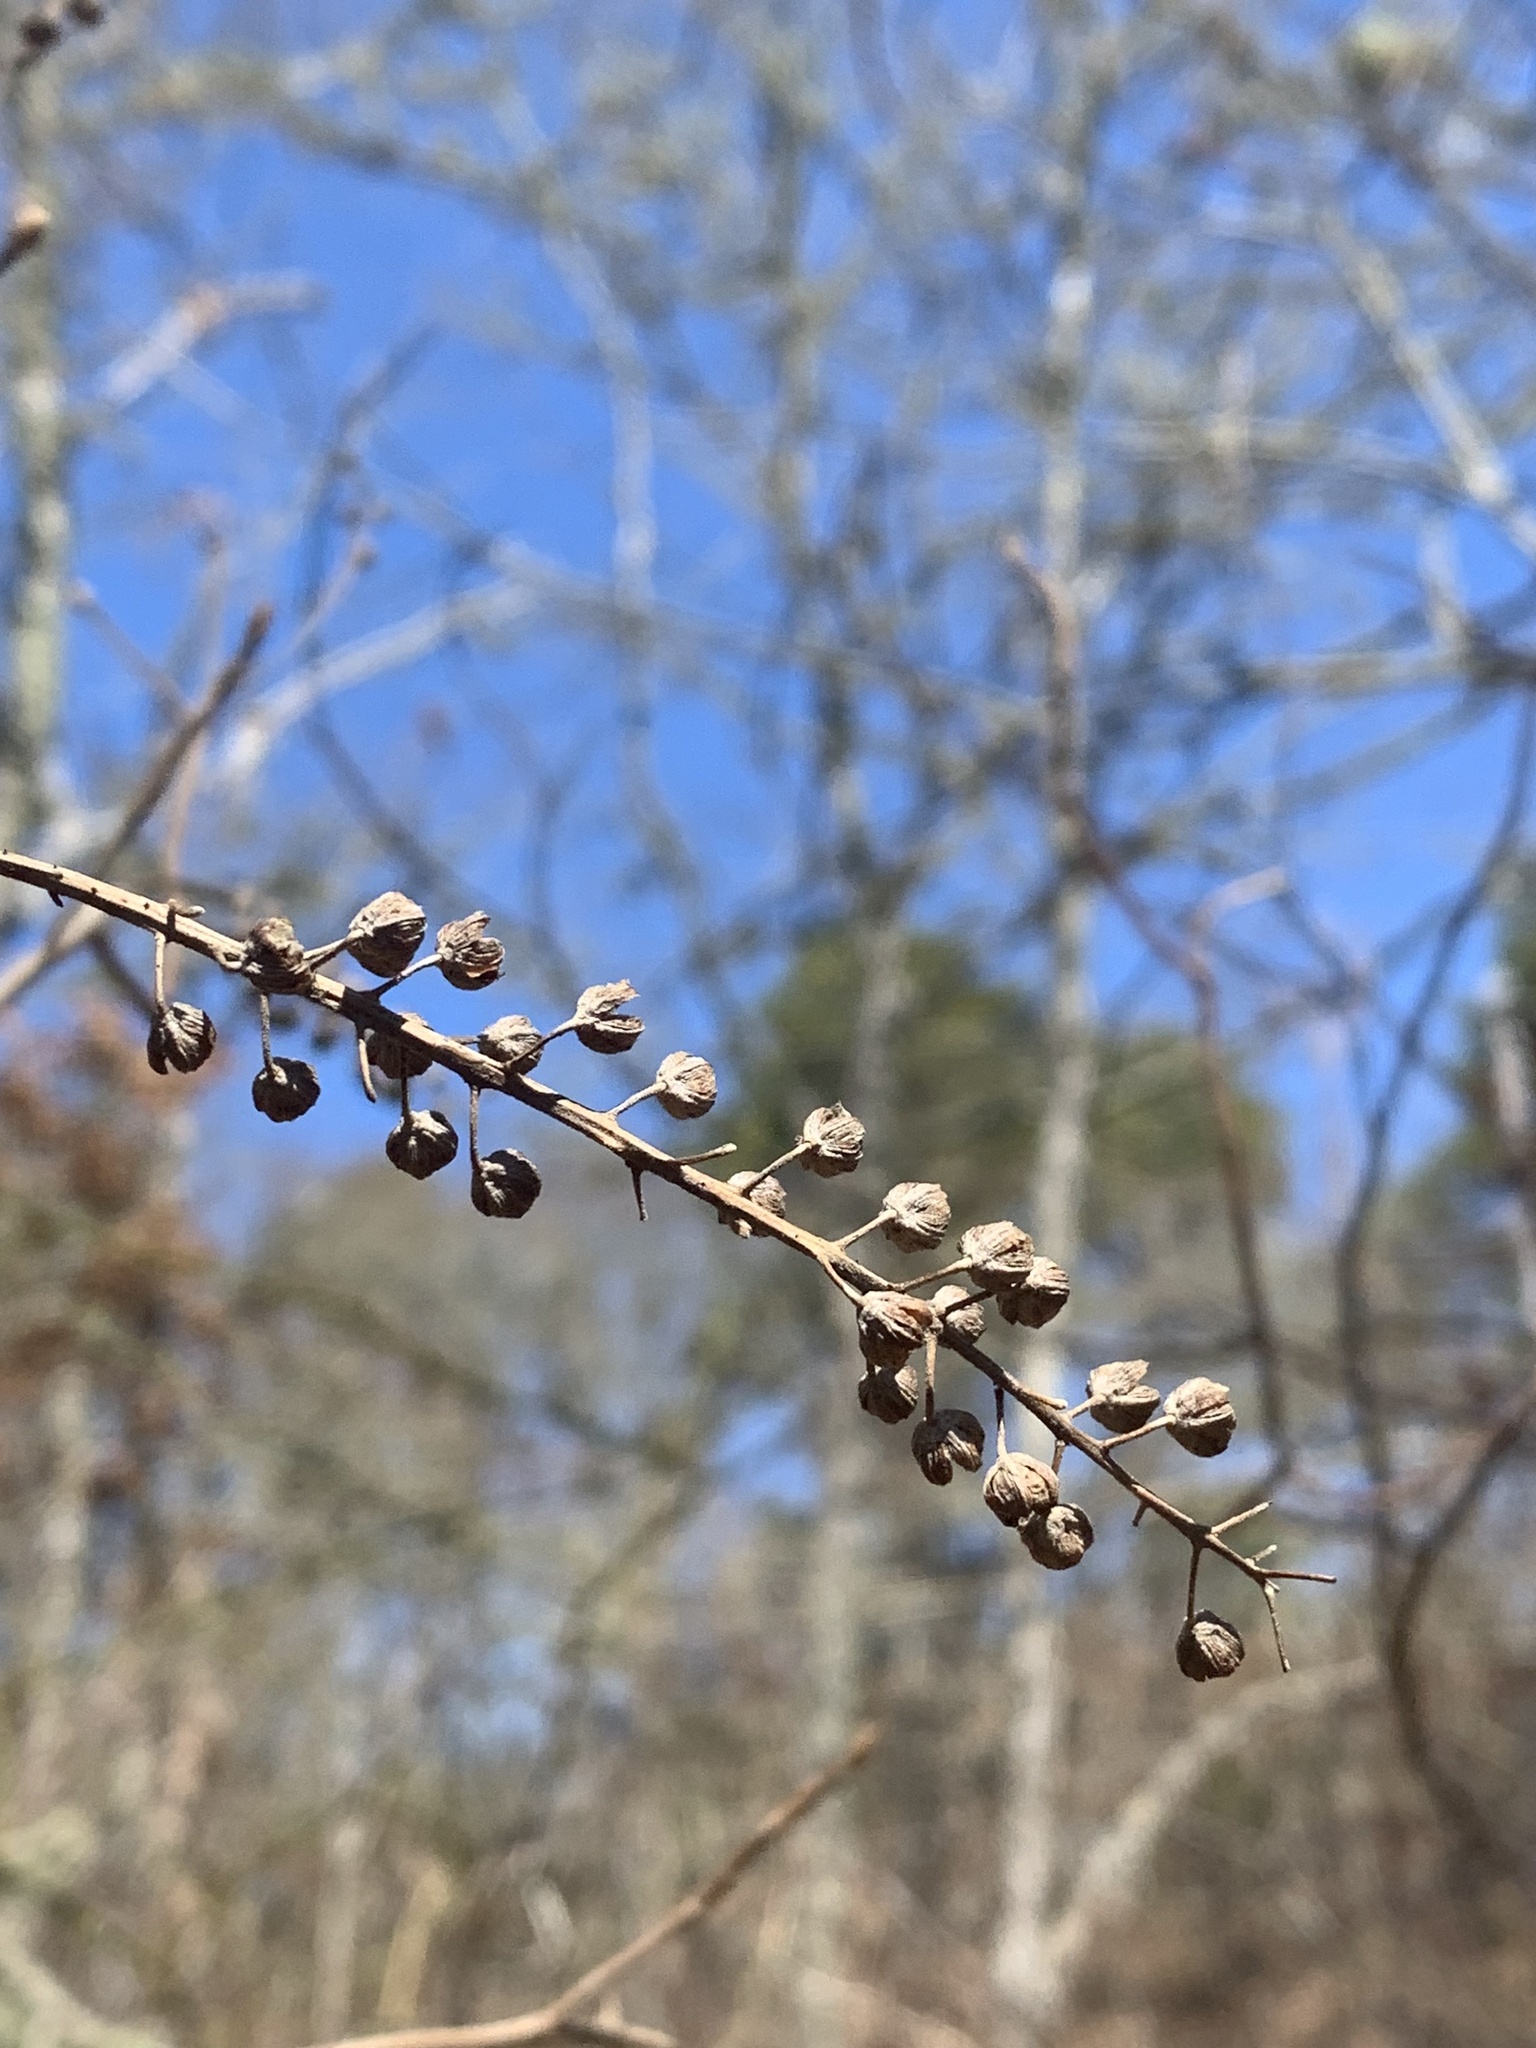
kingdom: Plantae
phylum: Tracheophyta
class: Magnoliopsida
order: Ericales
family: Clethraceae
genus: Clethra
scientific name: Clethra alnifolia
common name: Sweet pepperbush
